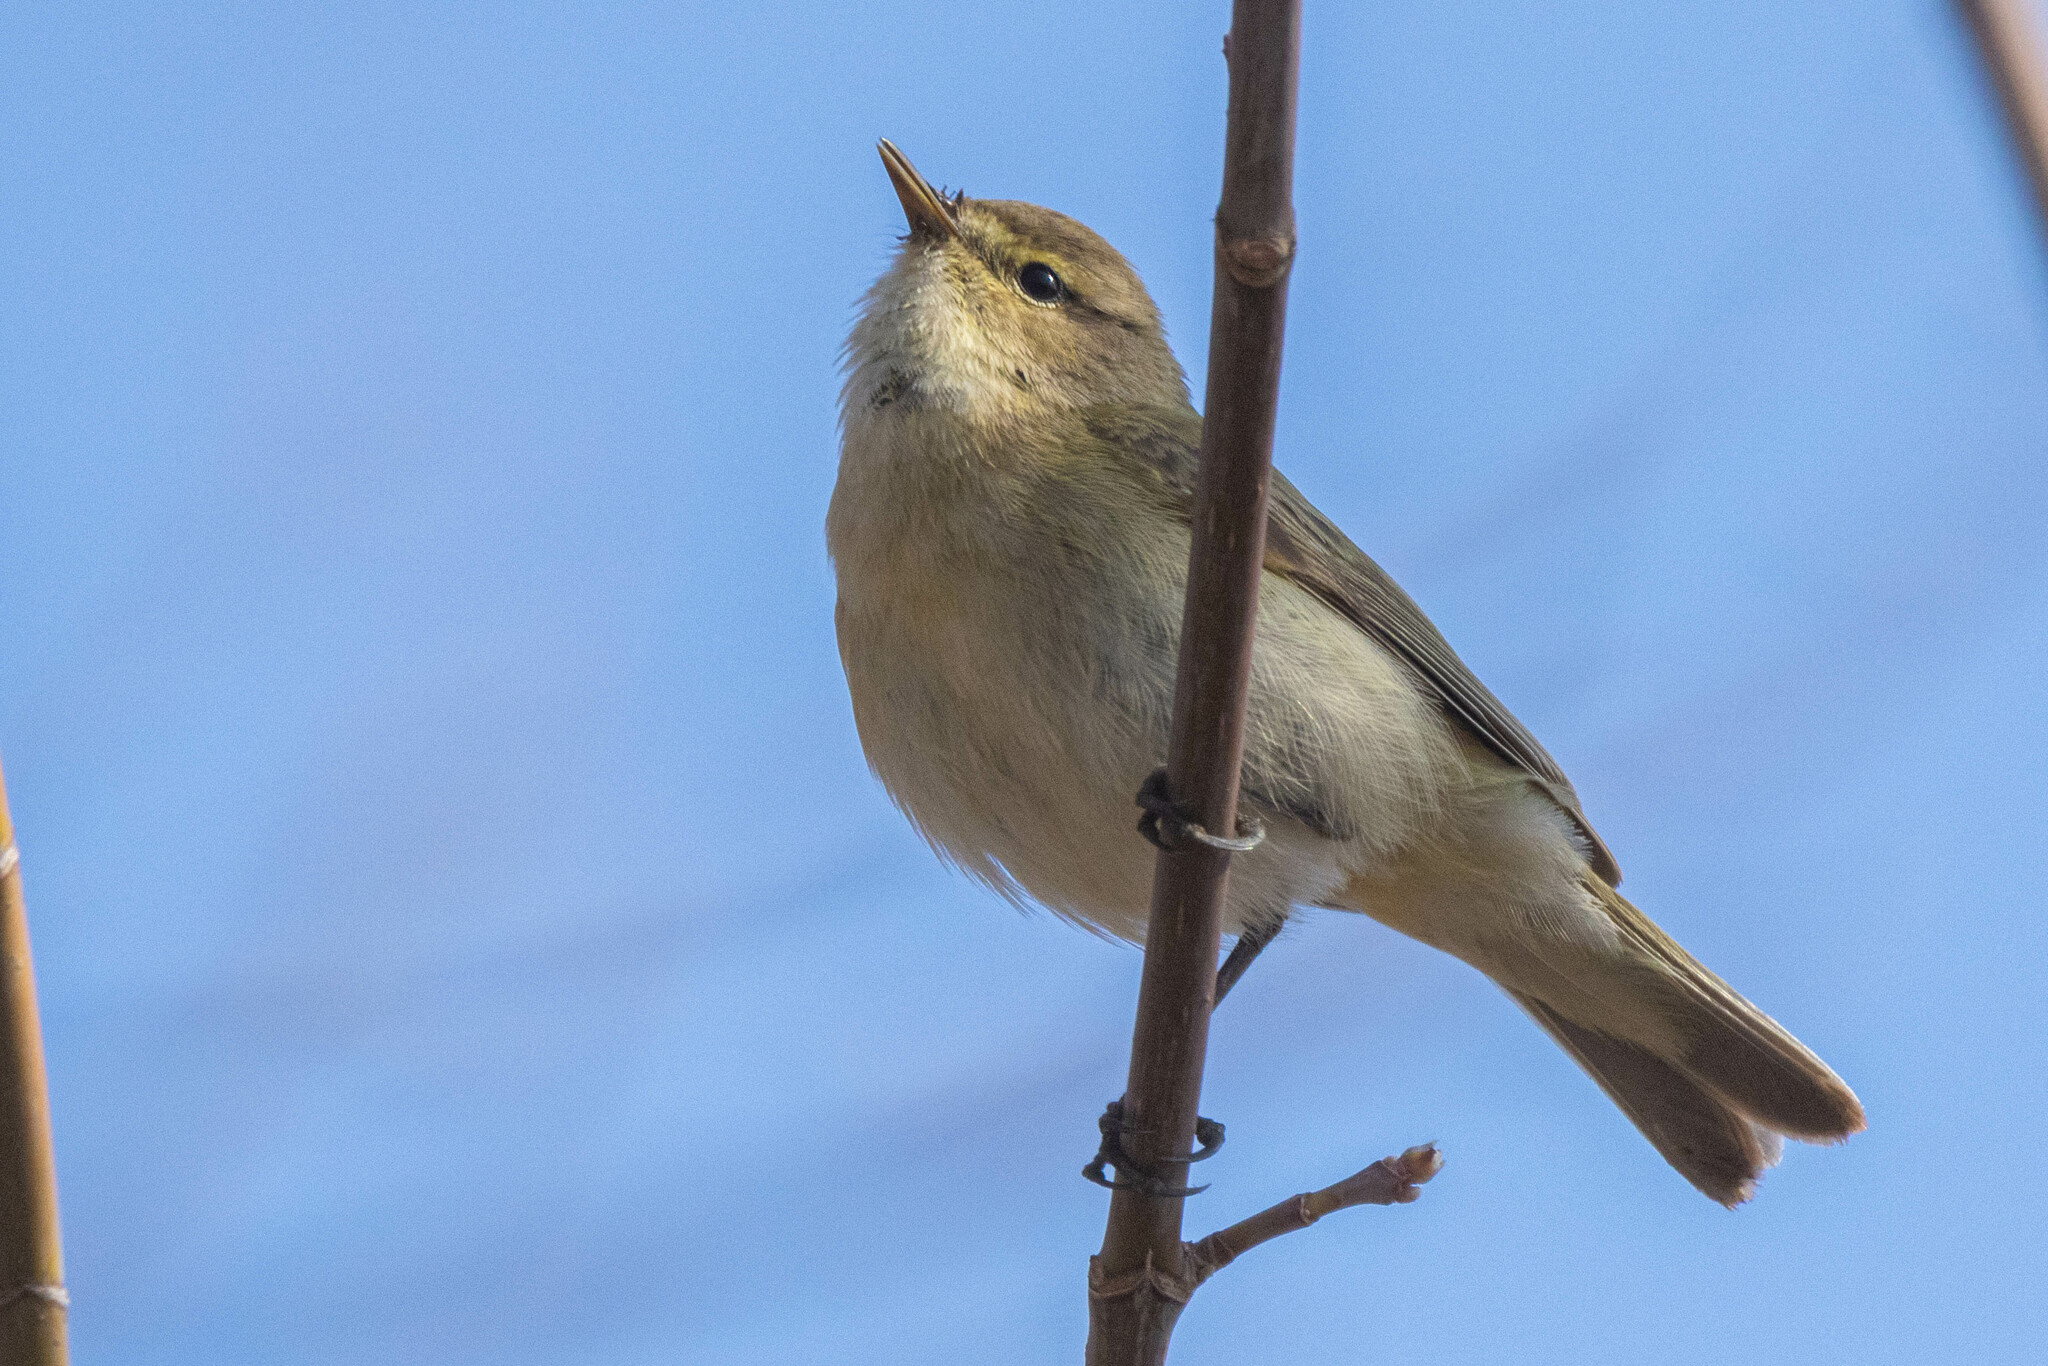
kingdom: Animalia
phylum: Chordata
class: Aves
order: Passeriformes
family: Phylloscopidae
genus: Phylloscopus
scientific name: Phylloscopus collybita
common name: Common chiffchaff
